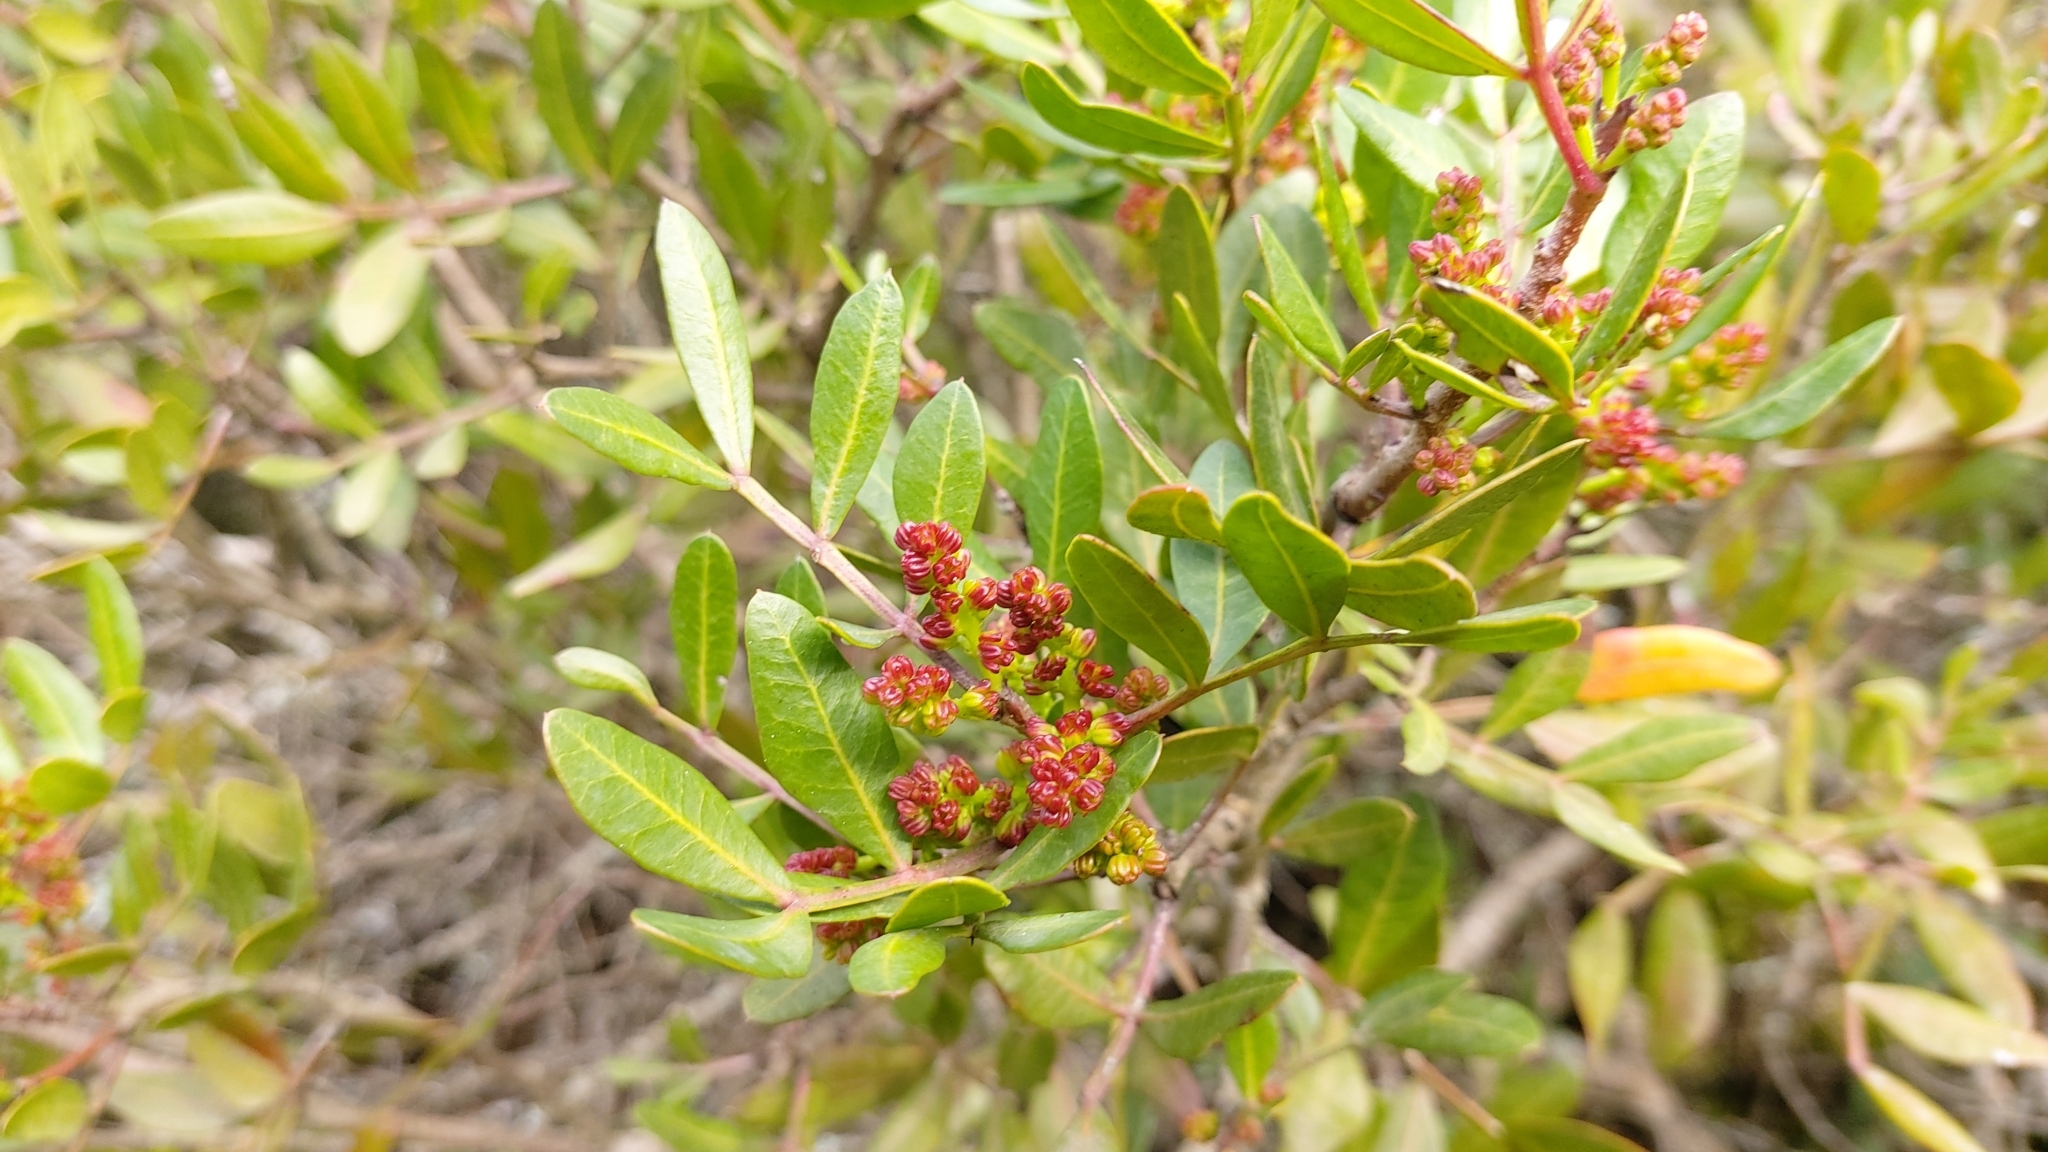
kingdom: Plantae
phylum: Tracheophyta
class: Magnoliopsida
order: Sapindales
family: Anacardiaceae
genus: Pistacia
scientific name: Pistacia lentiscus
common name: Lentisk
